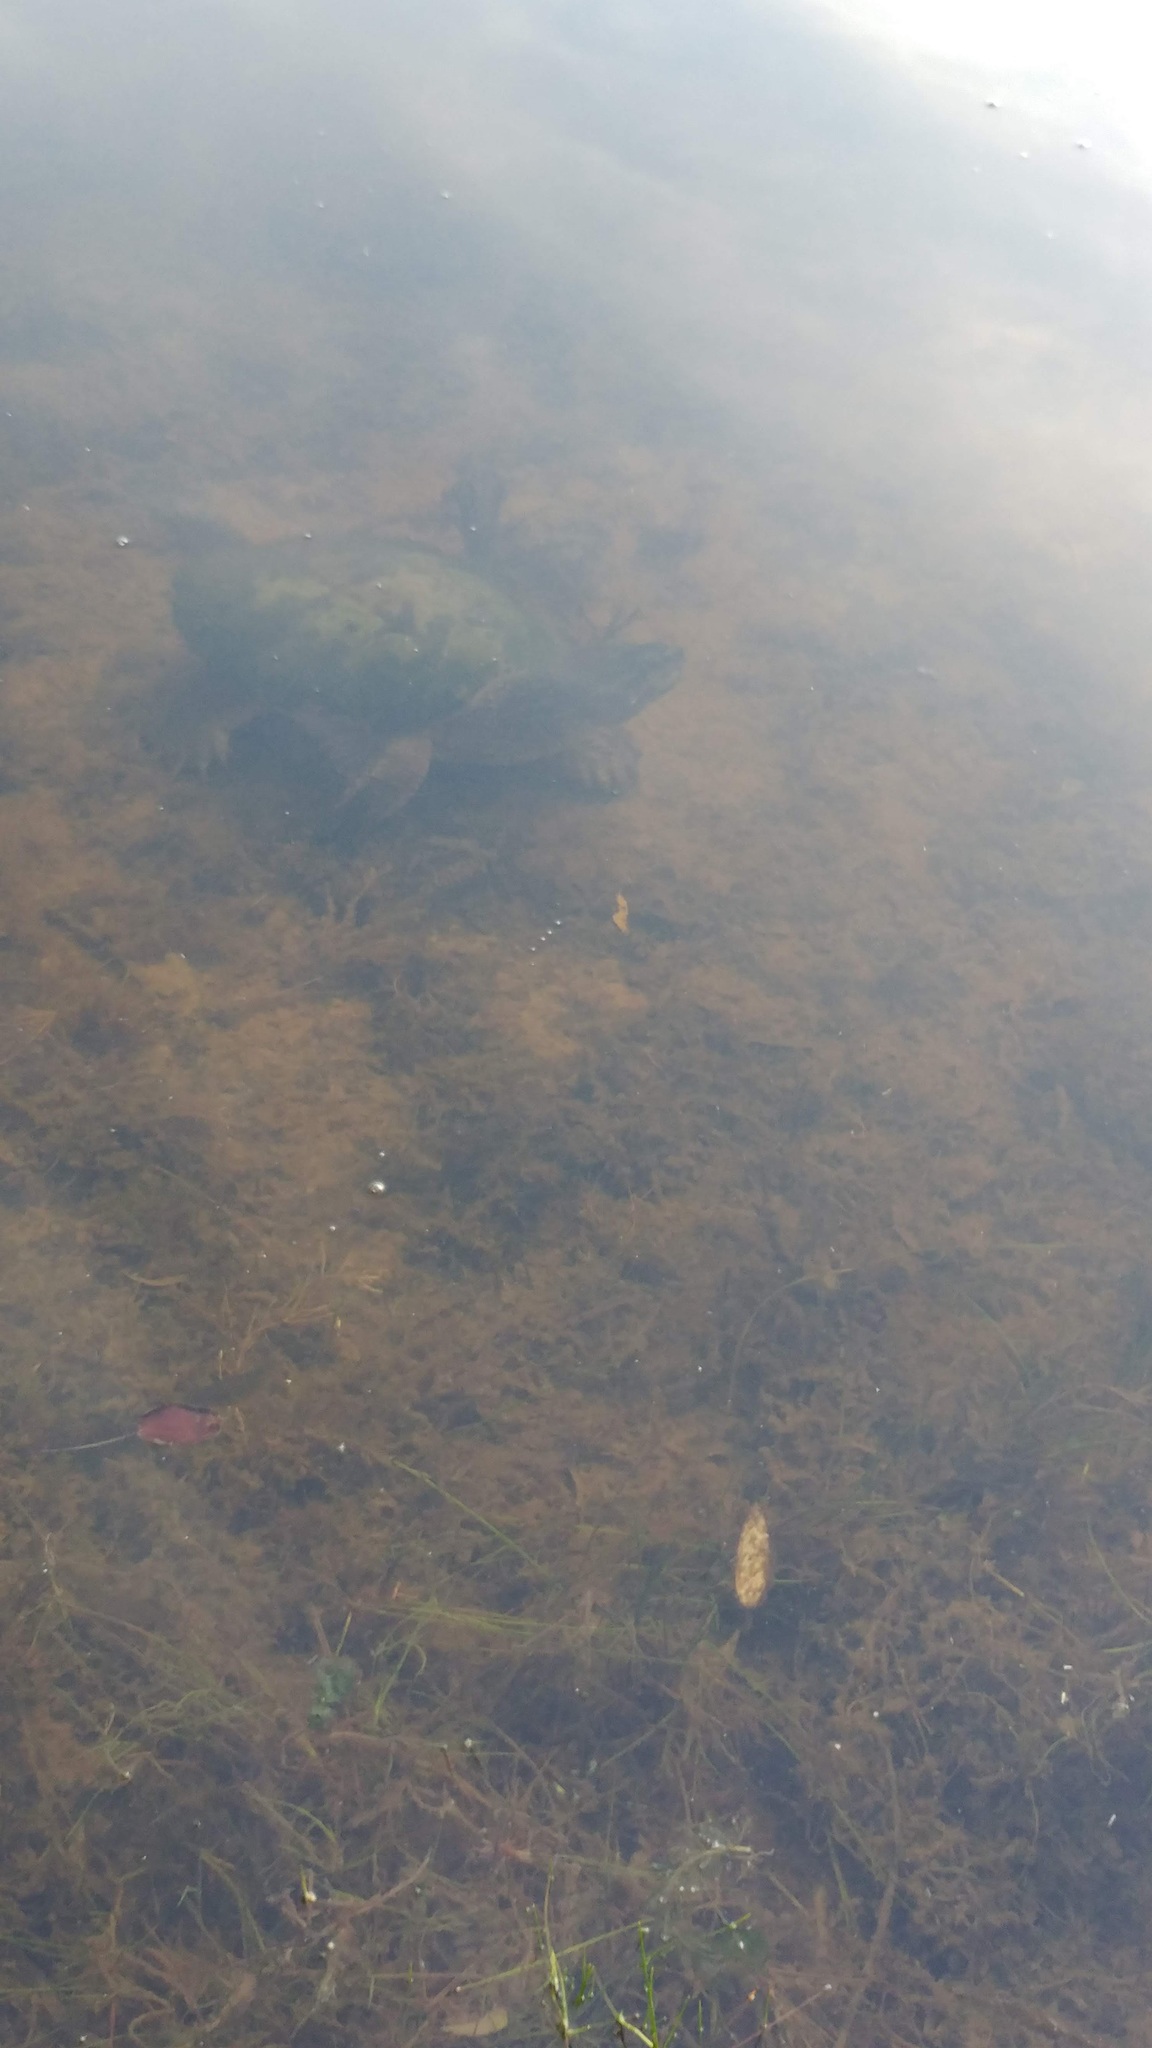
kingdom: Animalia
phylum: Chordata
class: Testudines
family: Chelydridae
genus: Chelydra
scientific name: Chelydra serpentina
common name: Common snapping turtle
